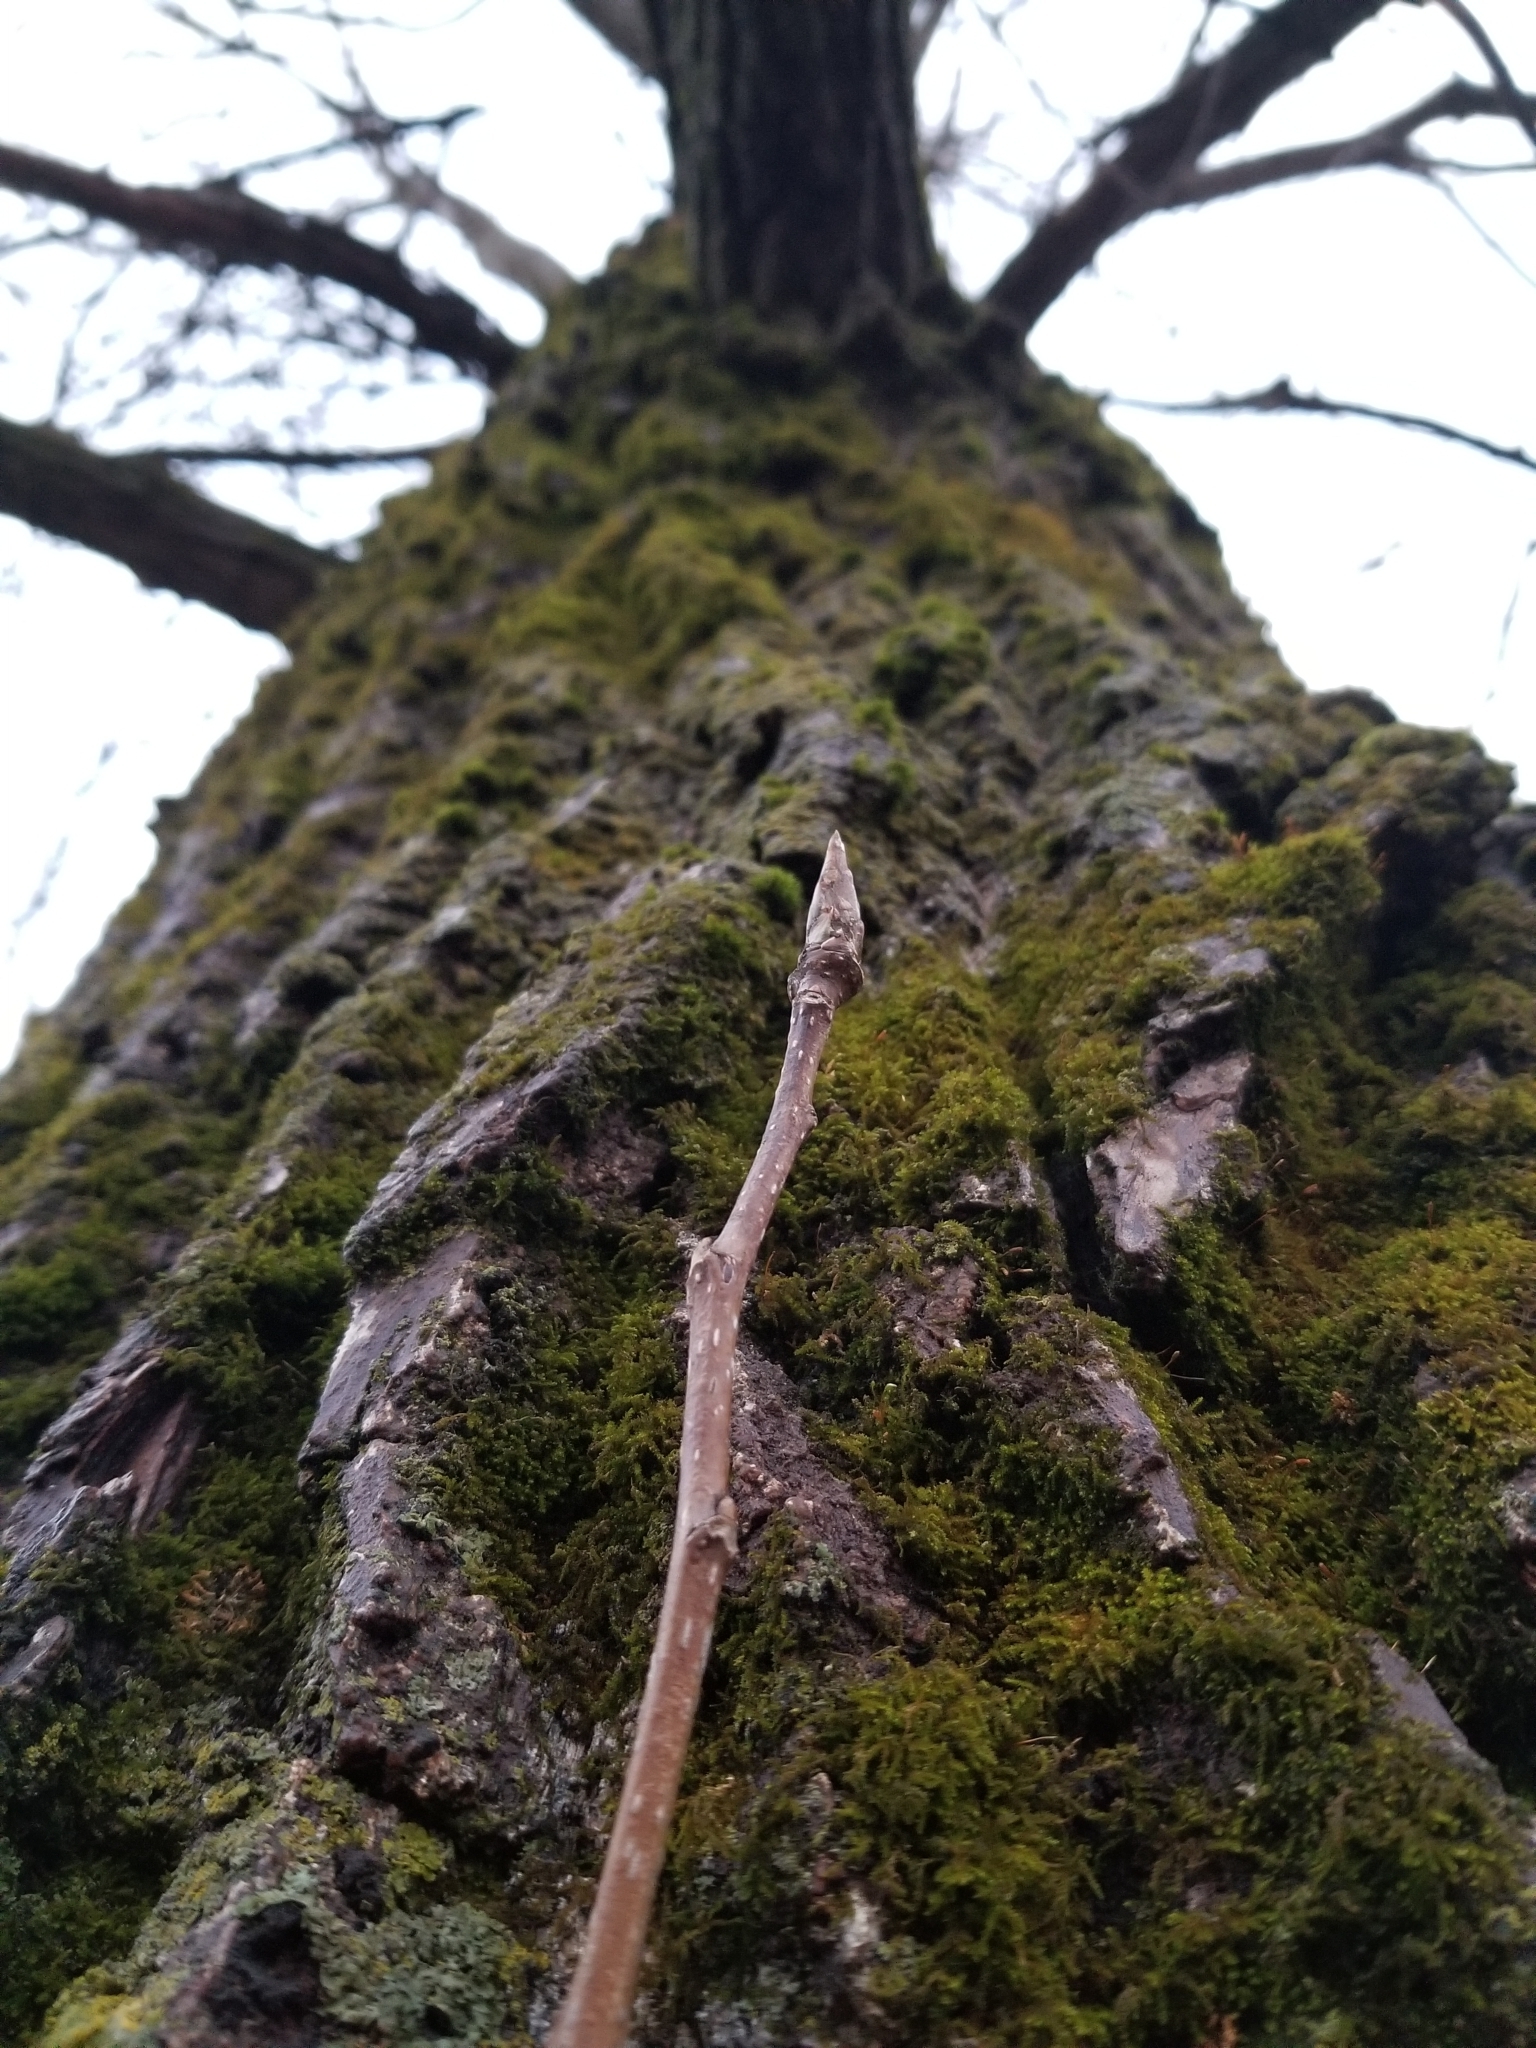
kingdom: Plantae
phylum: Tracheophyta
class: Magnoliopsida
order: Malpighiales
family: Salicaceae
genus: Populus
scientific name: Populus deltoides
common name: Eastern cottonwood
